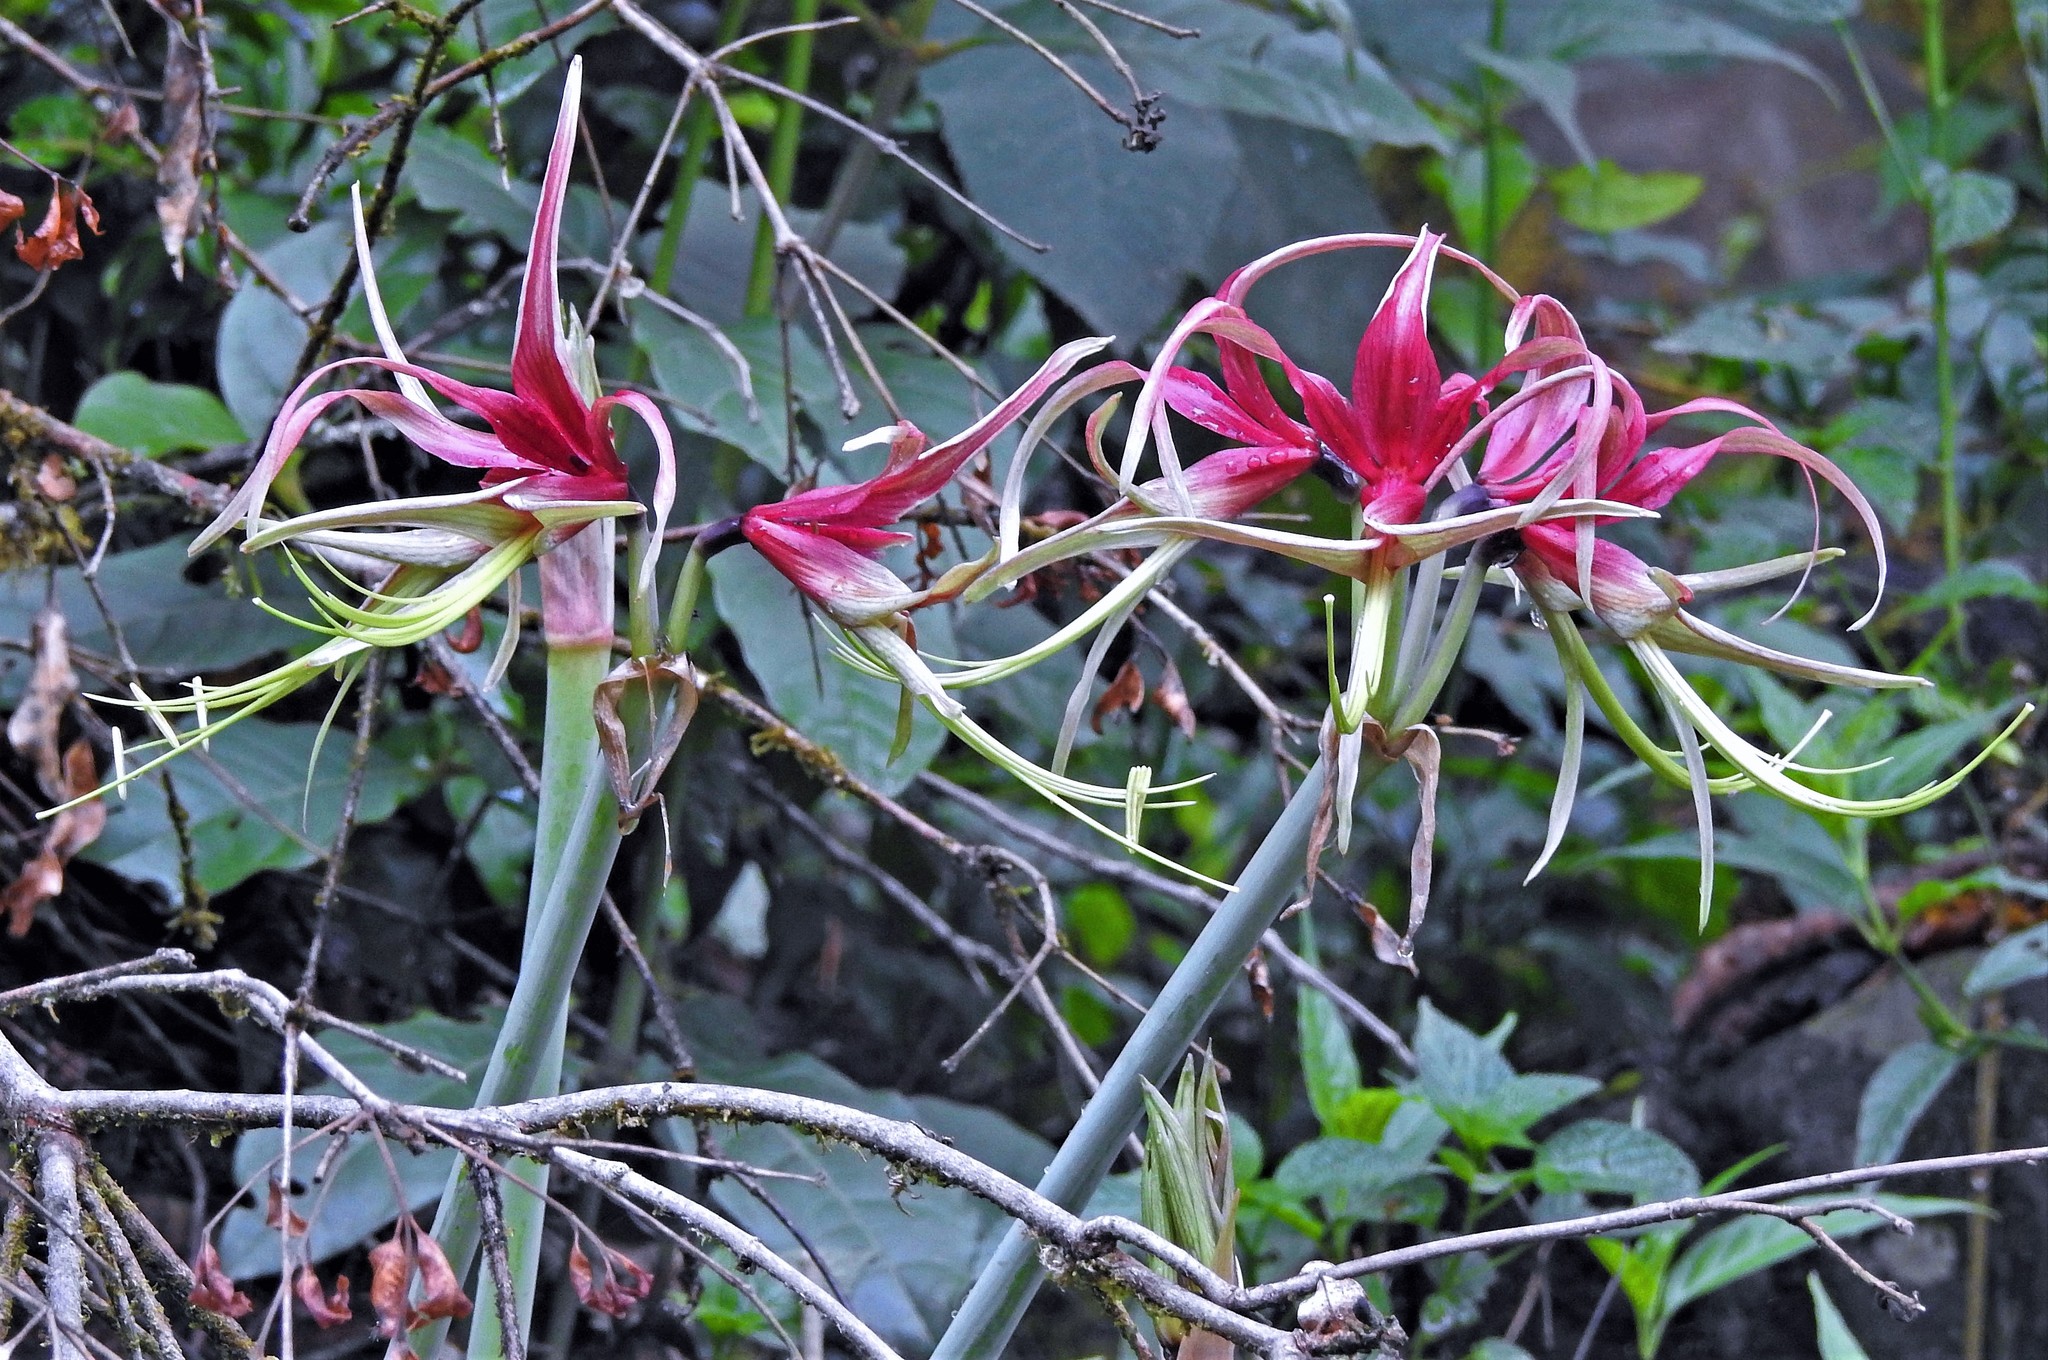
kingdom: Plantae
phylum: Tracheophyta
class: Liliopsida
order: Asparagales
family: Amaryllidaceae
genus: Hippeastrum
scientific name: Hippeastrum cybister
